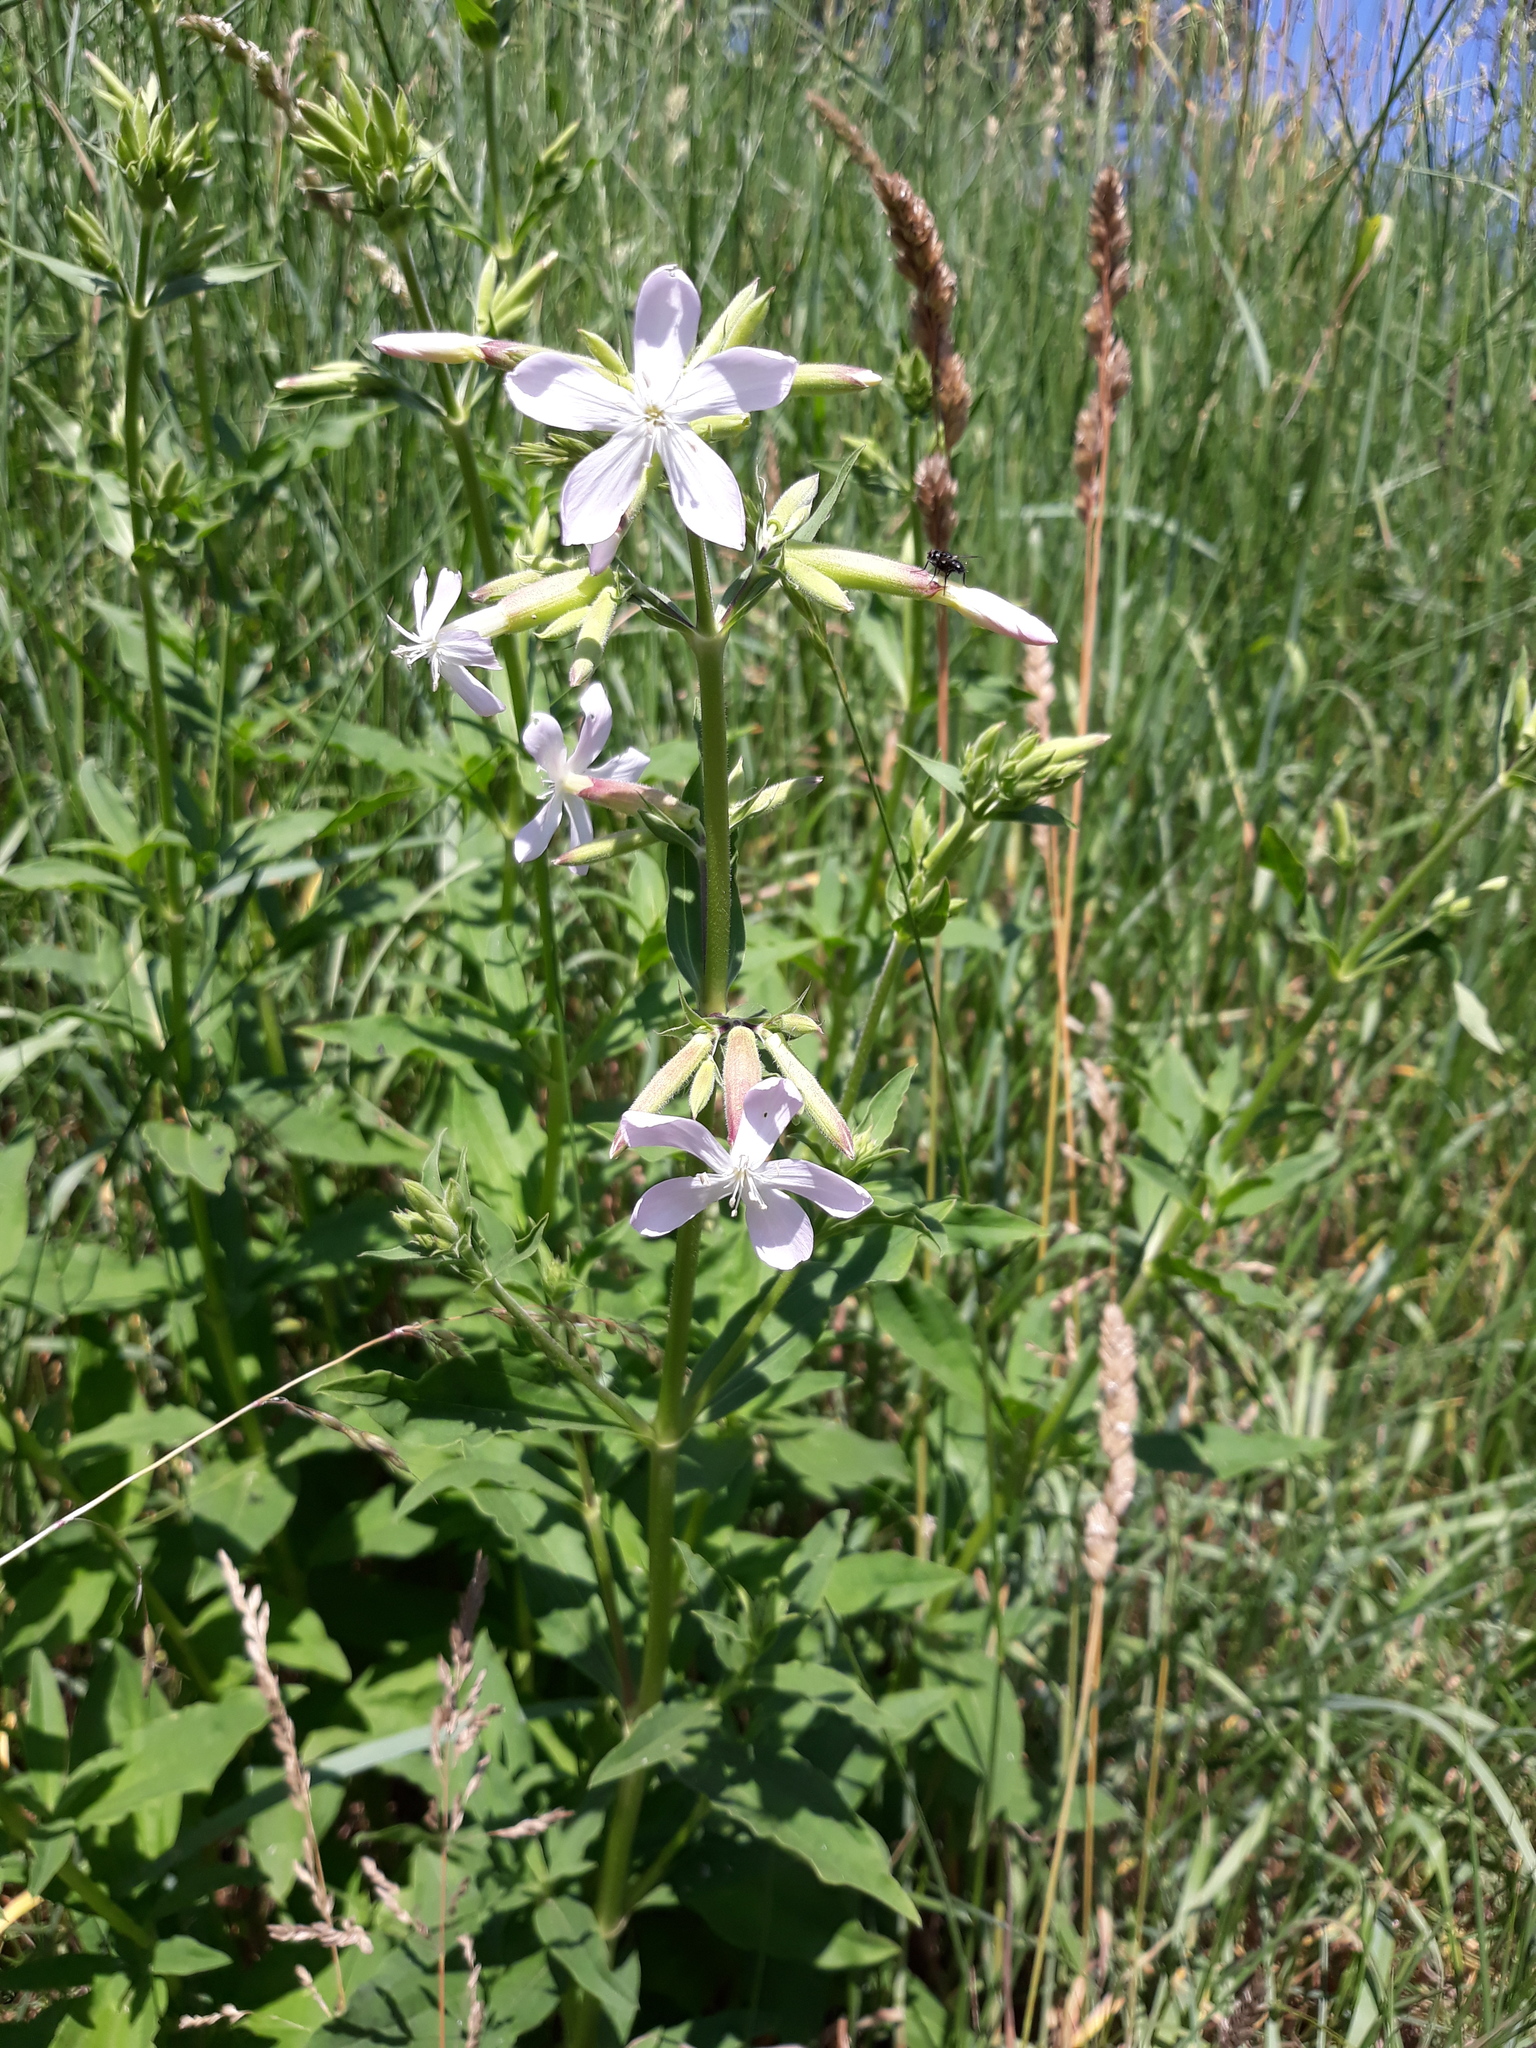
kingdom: Plantae
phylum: Tracheophyta
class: Magnoliopsida
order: Caryophyllales
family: Caryophyllaceae
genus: Saponaria
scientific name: Saponaria officinalis
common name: Soapwort
